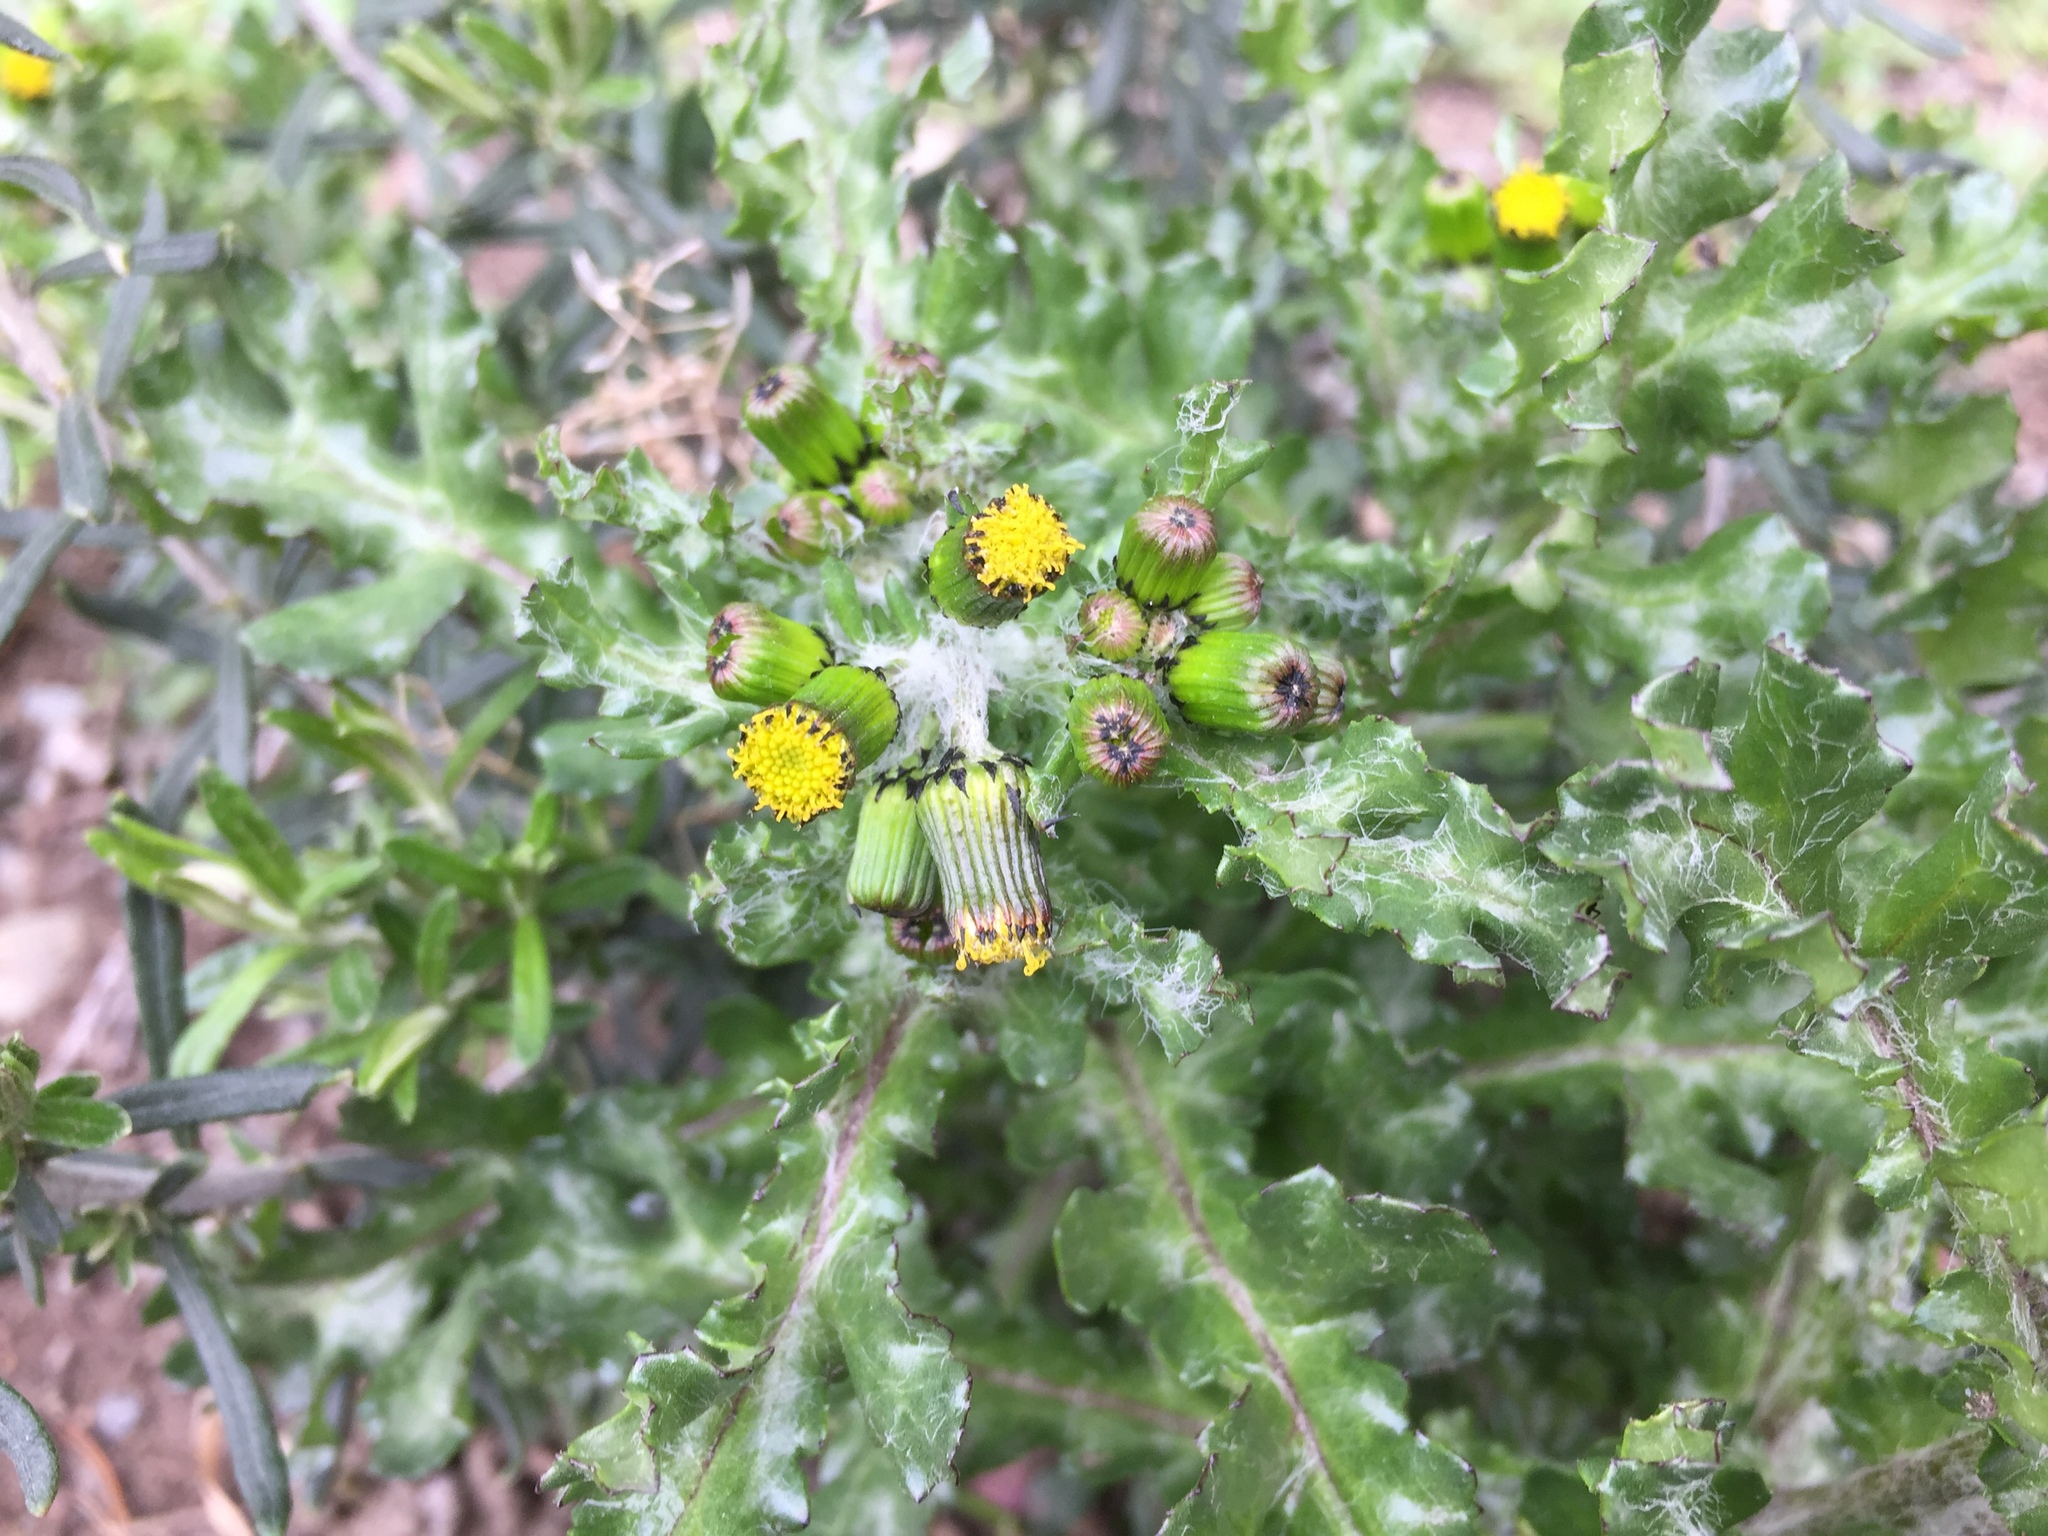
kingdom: Plantae
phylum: Tracheophyta
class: Magnoliopsida
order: Asterales
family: Asteraceae
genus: Senecio
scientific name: Senecio vulgaris
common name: Old-man-in-the-spring
